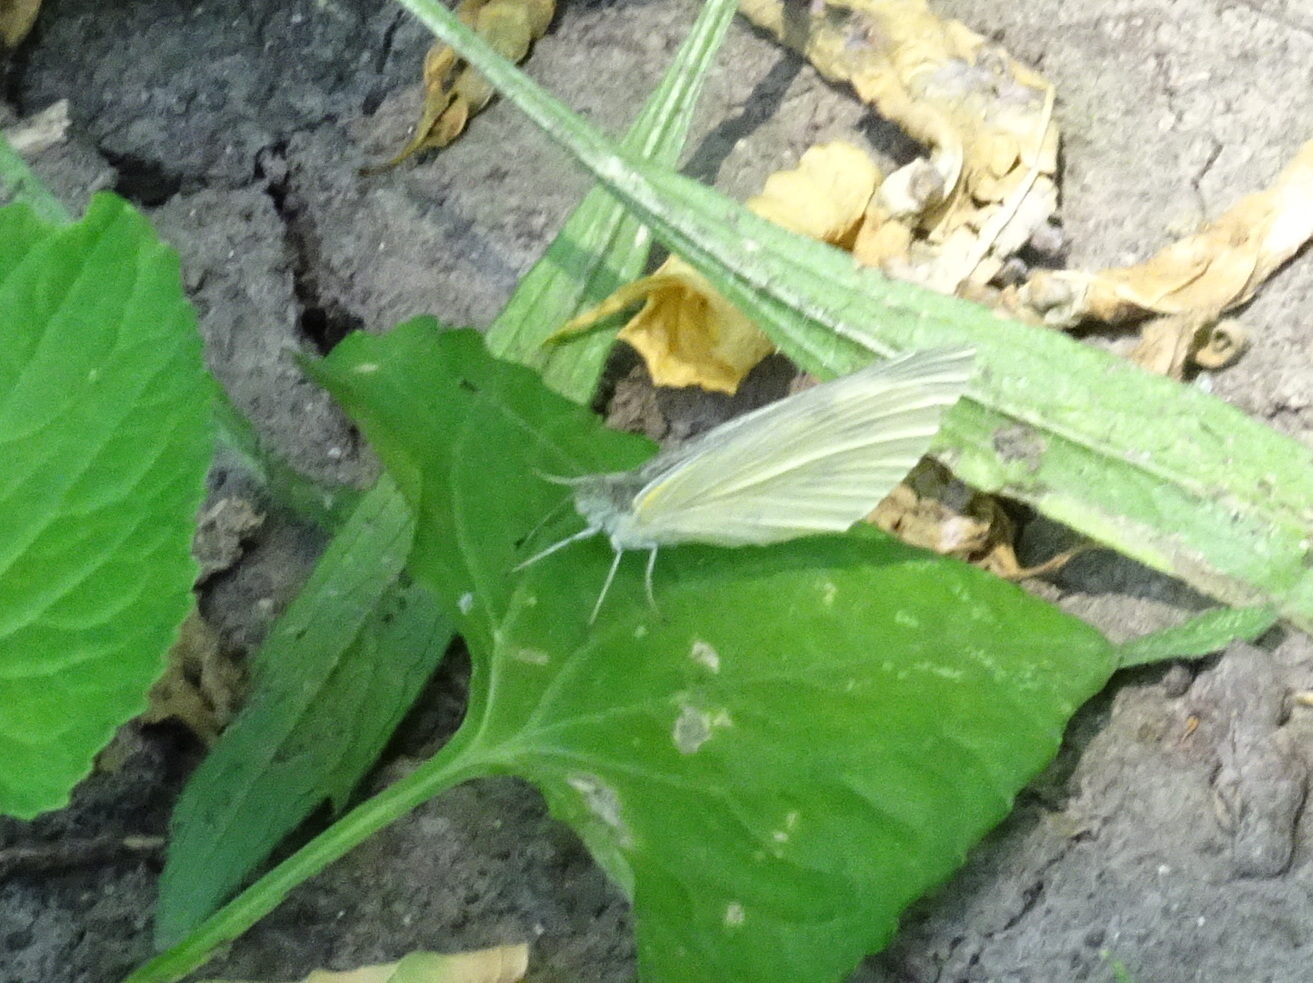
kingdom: Animalia
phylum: Arthropoda
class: Insecta
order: Lepidoptera
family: Pieridae
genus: Pieris
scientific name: Pieris rapae
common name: Small white
